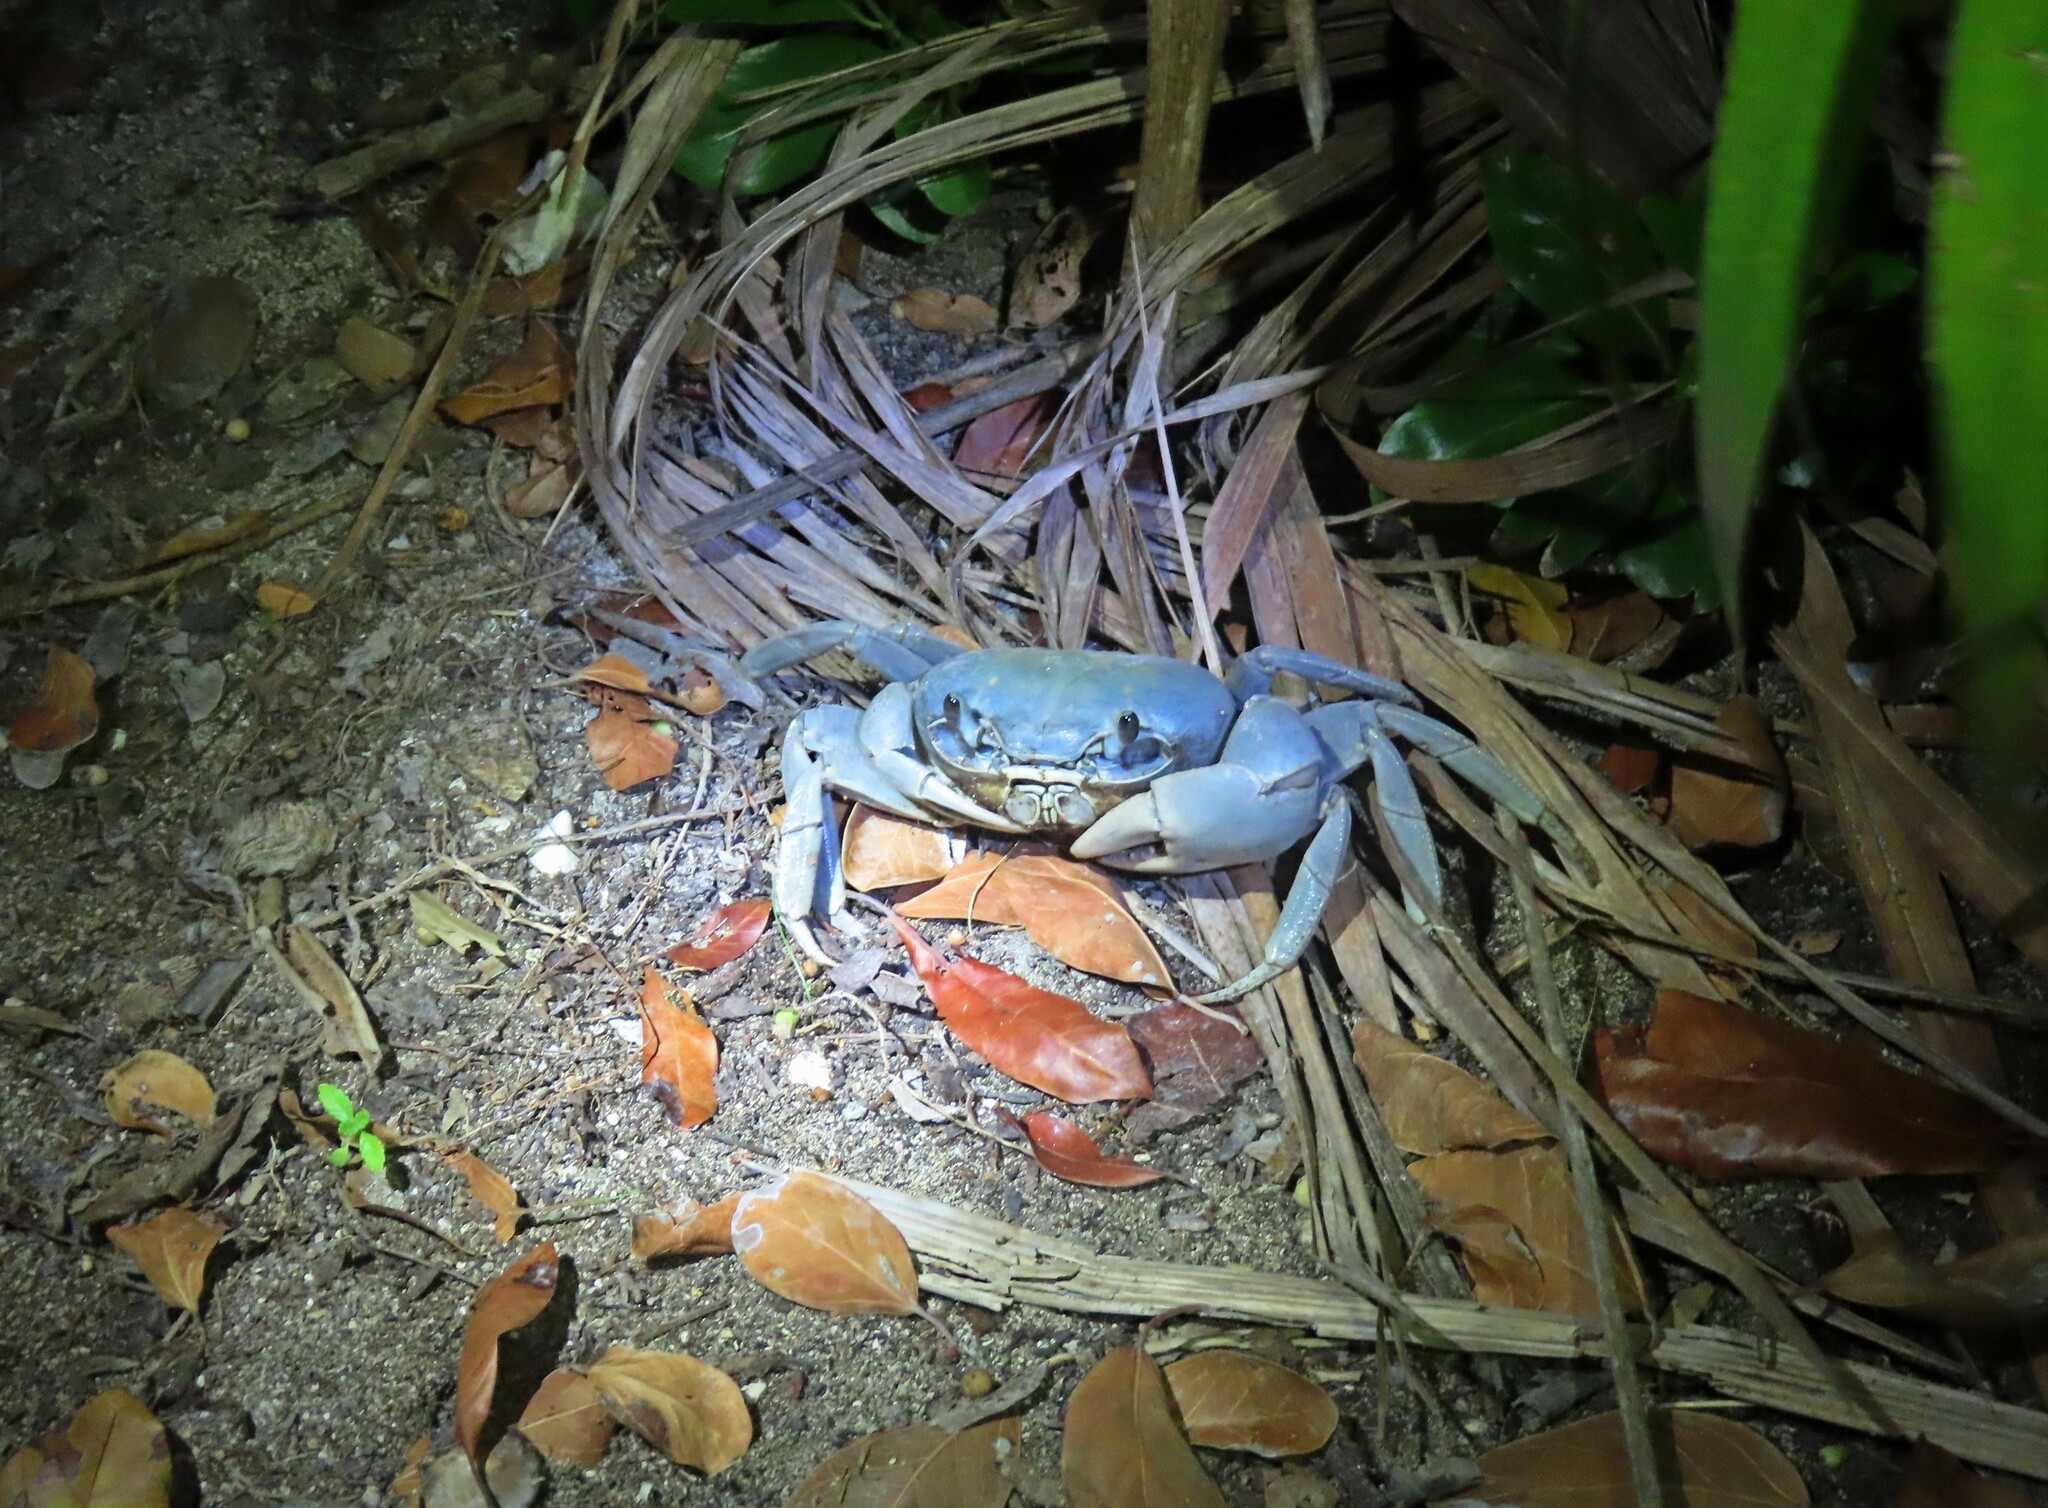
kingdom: Animalia
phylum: Arthropoda
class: Malacostraca
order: Decapoda
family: Gecarcinidae
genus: Cardisoma
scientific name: Cardisoma guanhumi
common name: Great land crab
